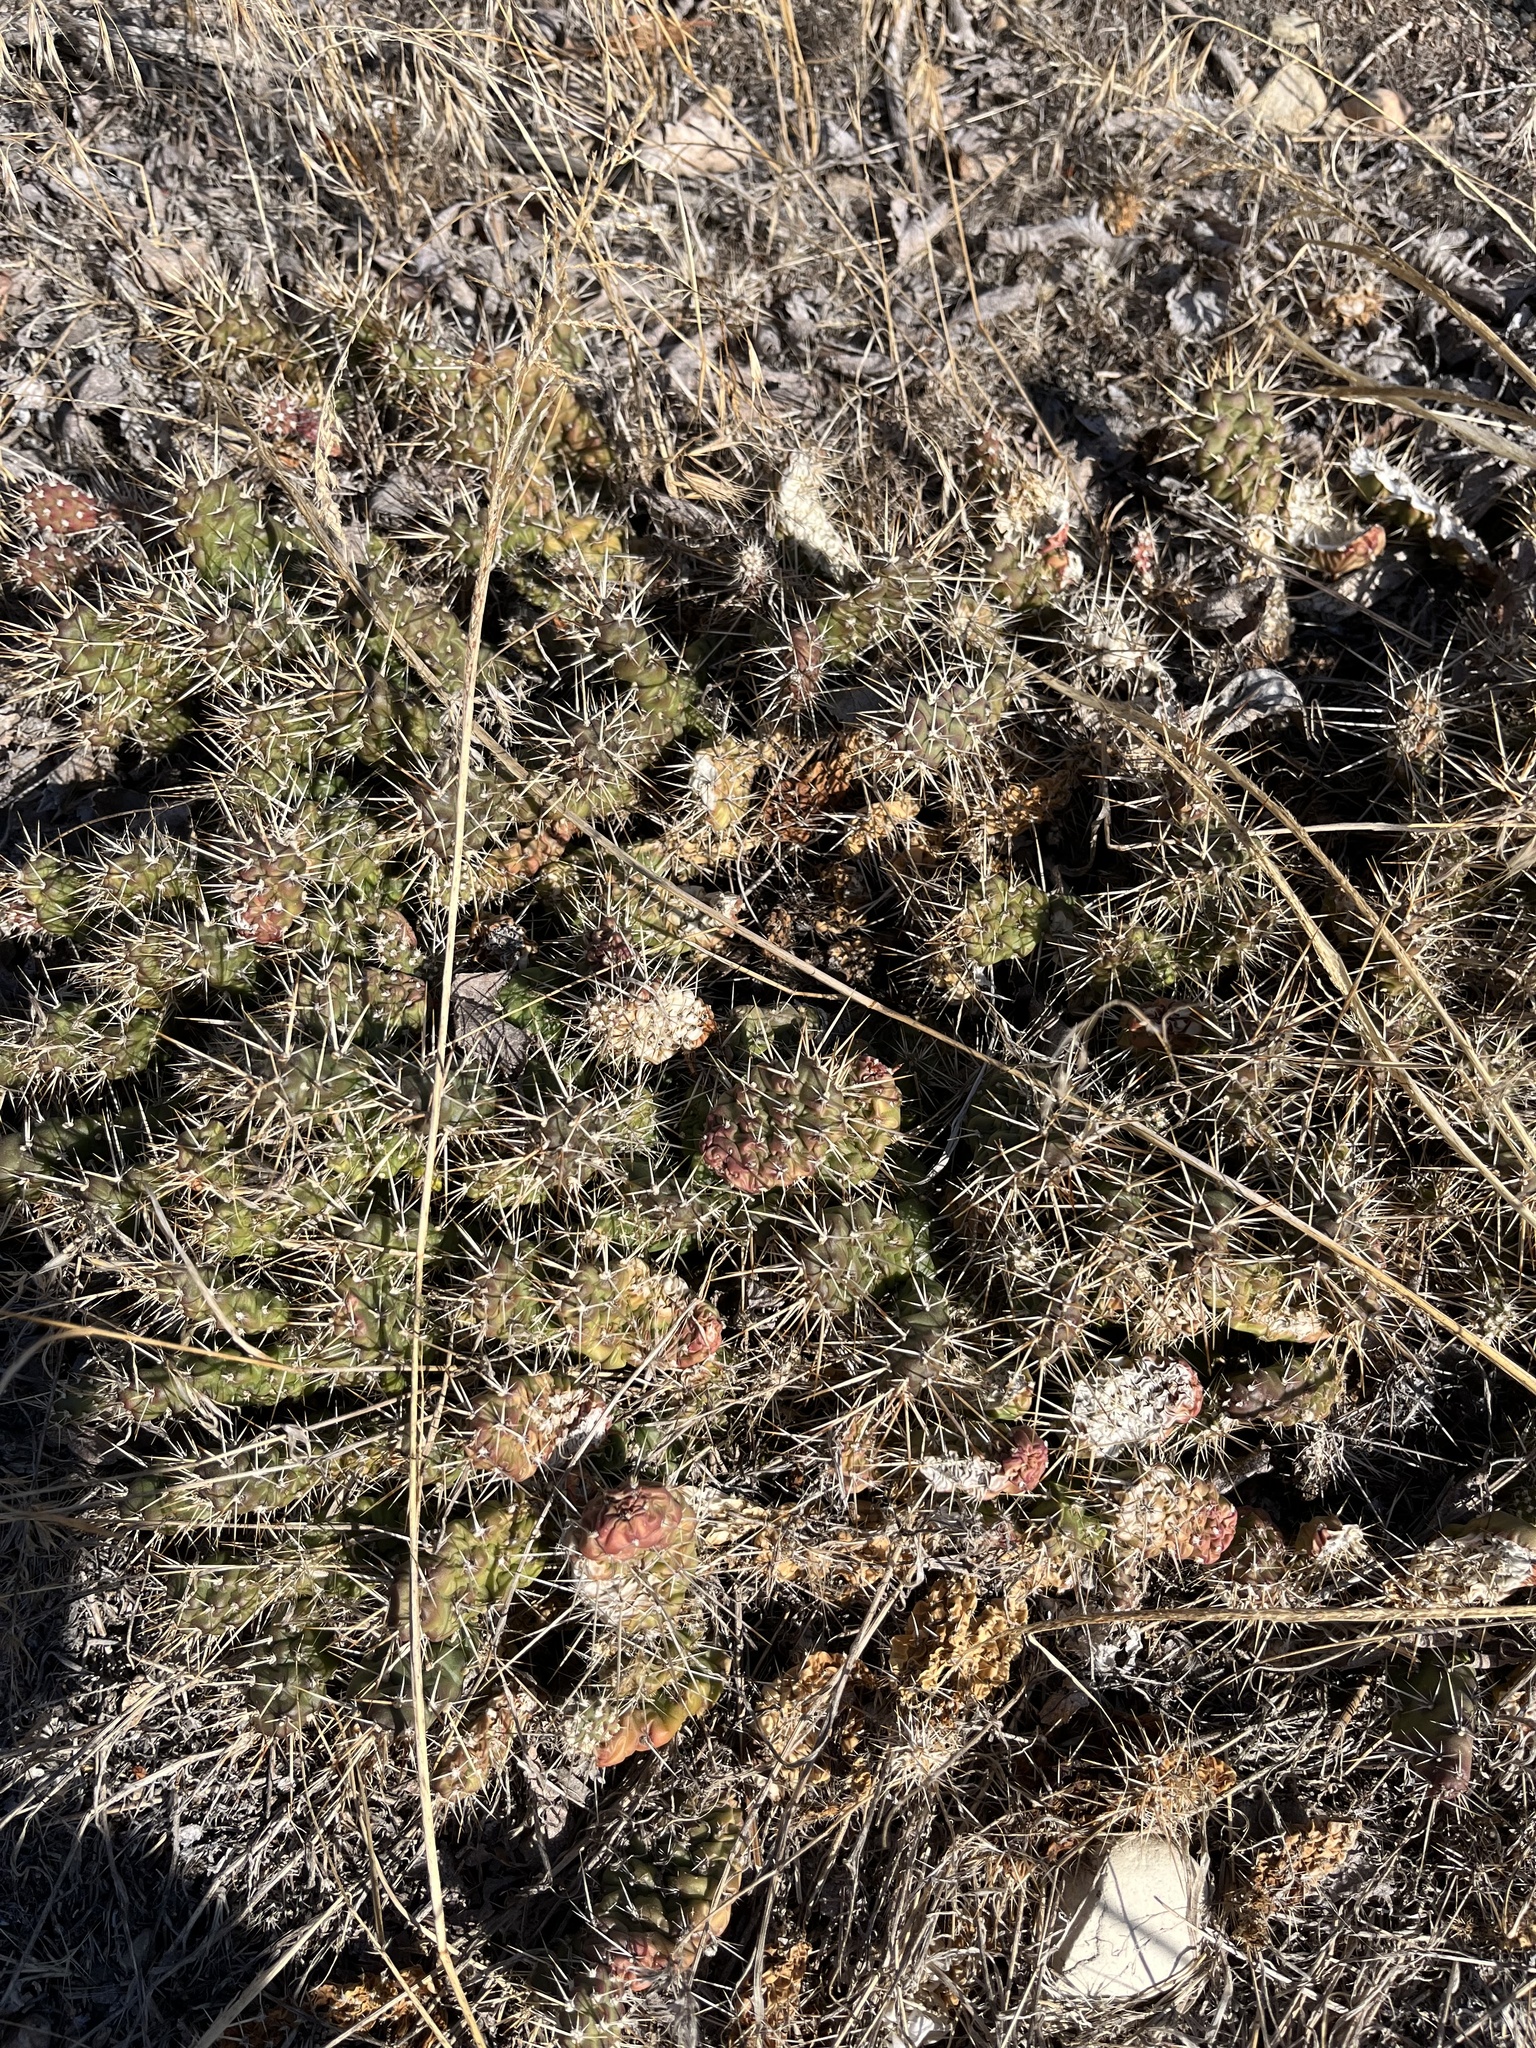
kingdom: Plantae
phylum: Tracheophyta
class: Magnoliopsida
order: Caryophyllales
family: Cactaceae
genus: Opuntia
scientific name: Opuntia fragilis
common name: Brittle cactus
